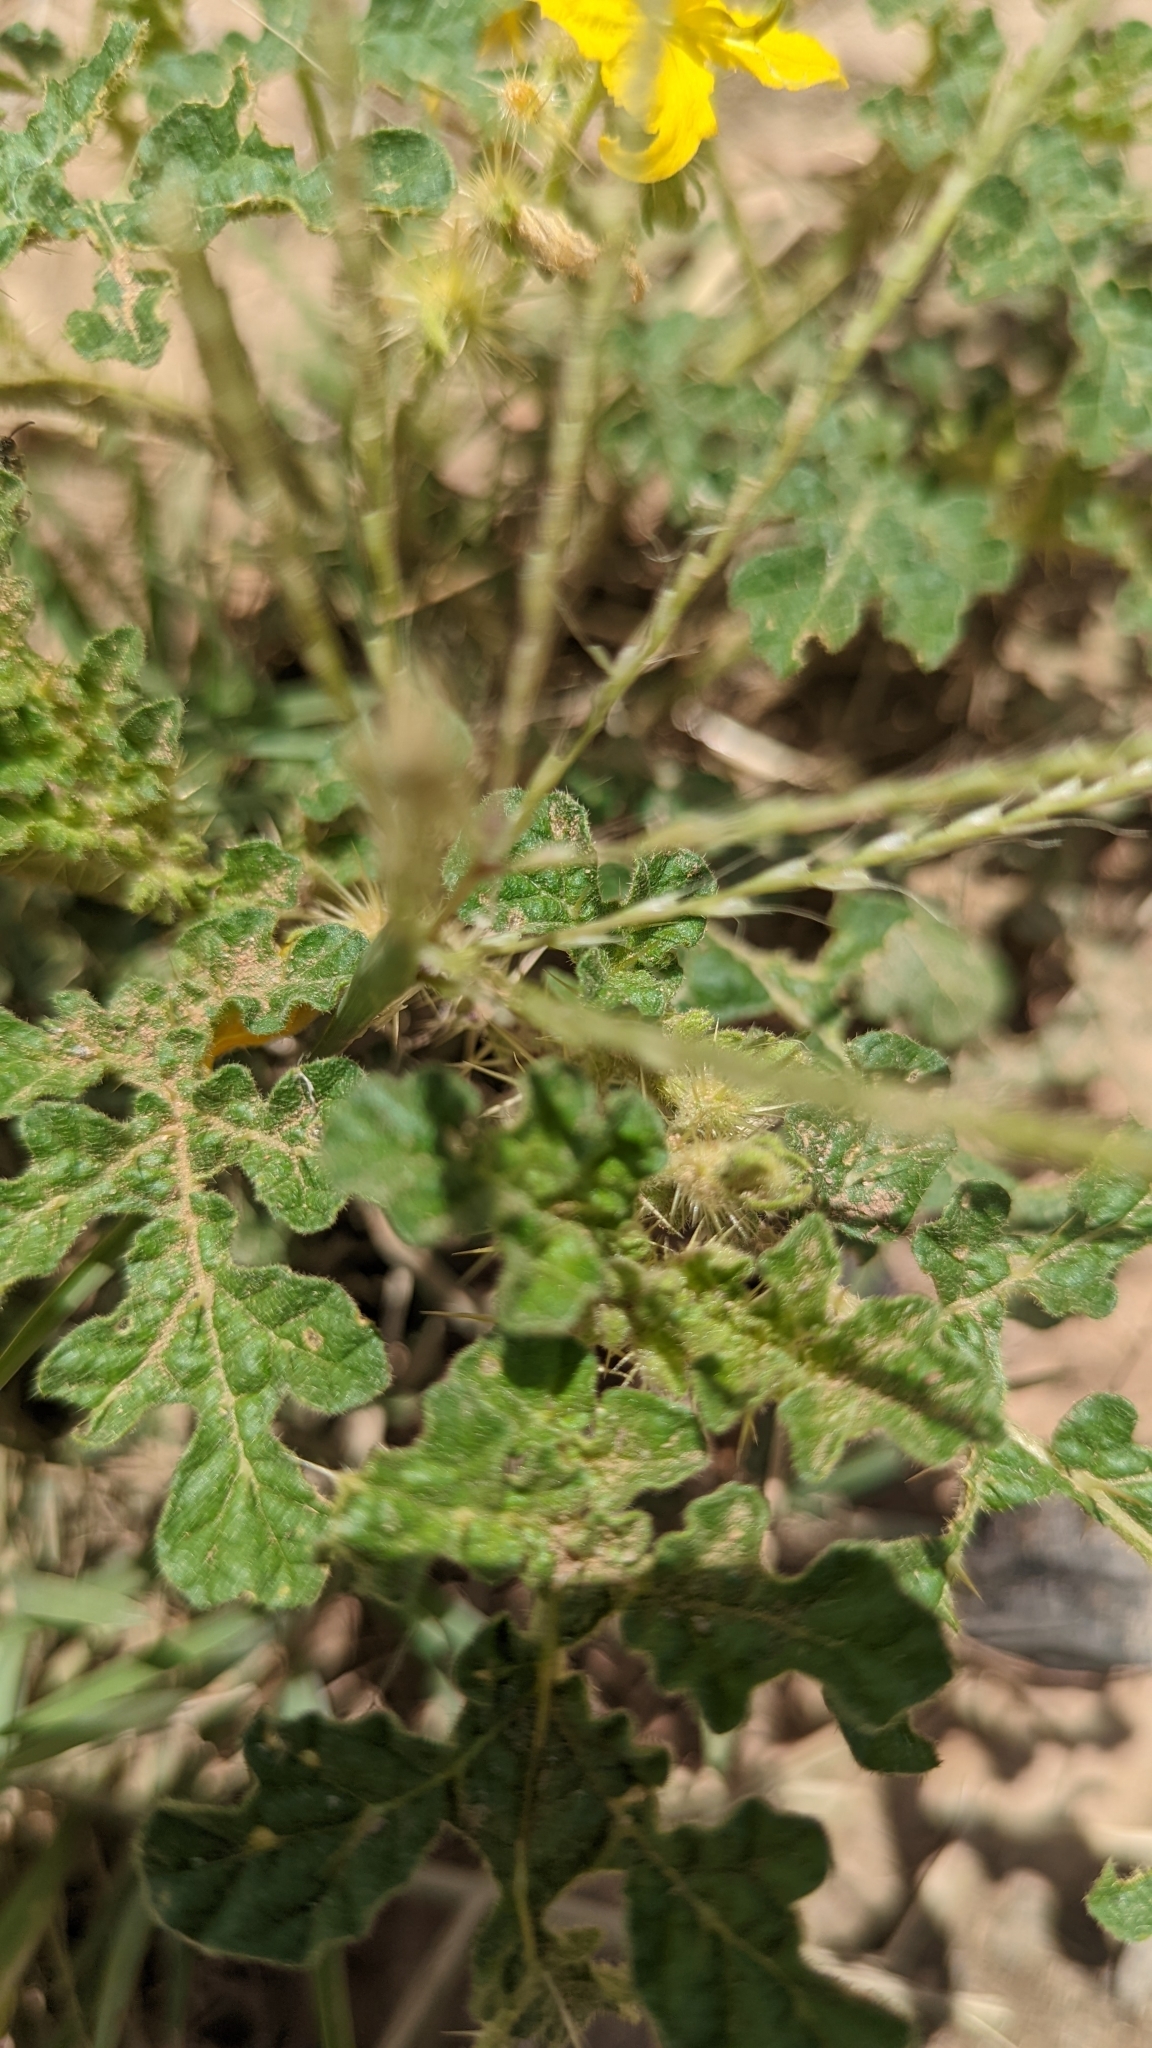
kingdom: Plantae
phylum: Tracheophyta
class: Magnoliopsida
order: Lamiales
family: Verbenaceae
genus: Verbena
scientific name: Verbena bipinnatifida
